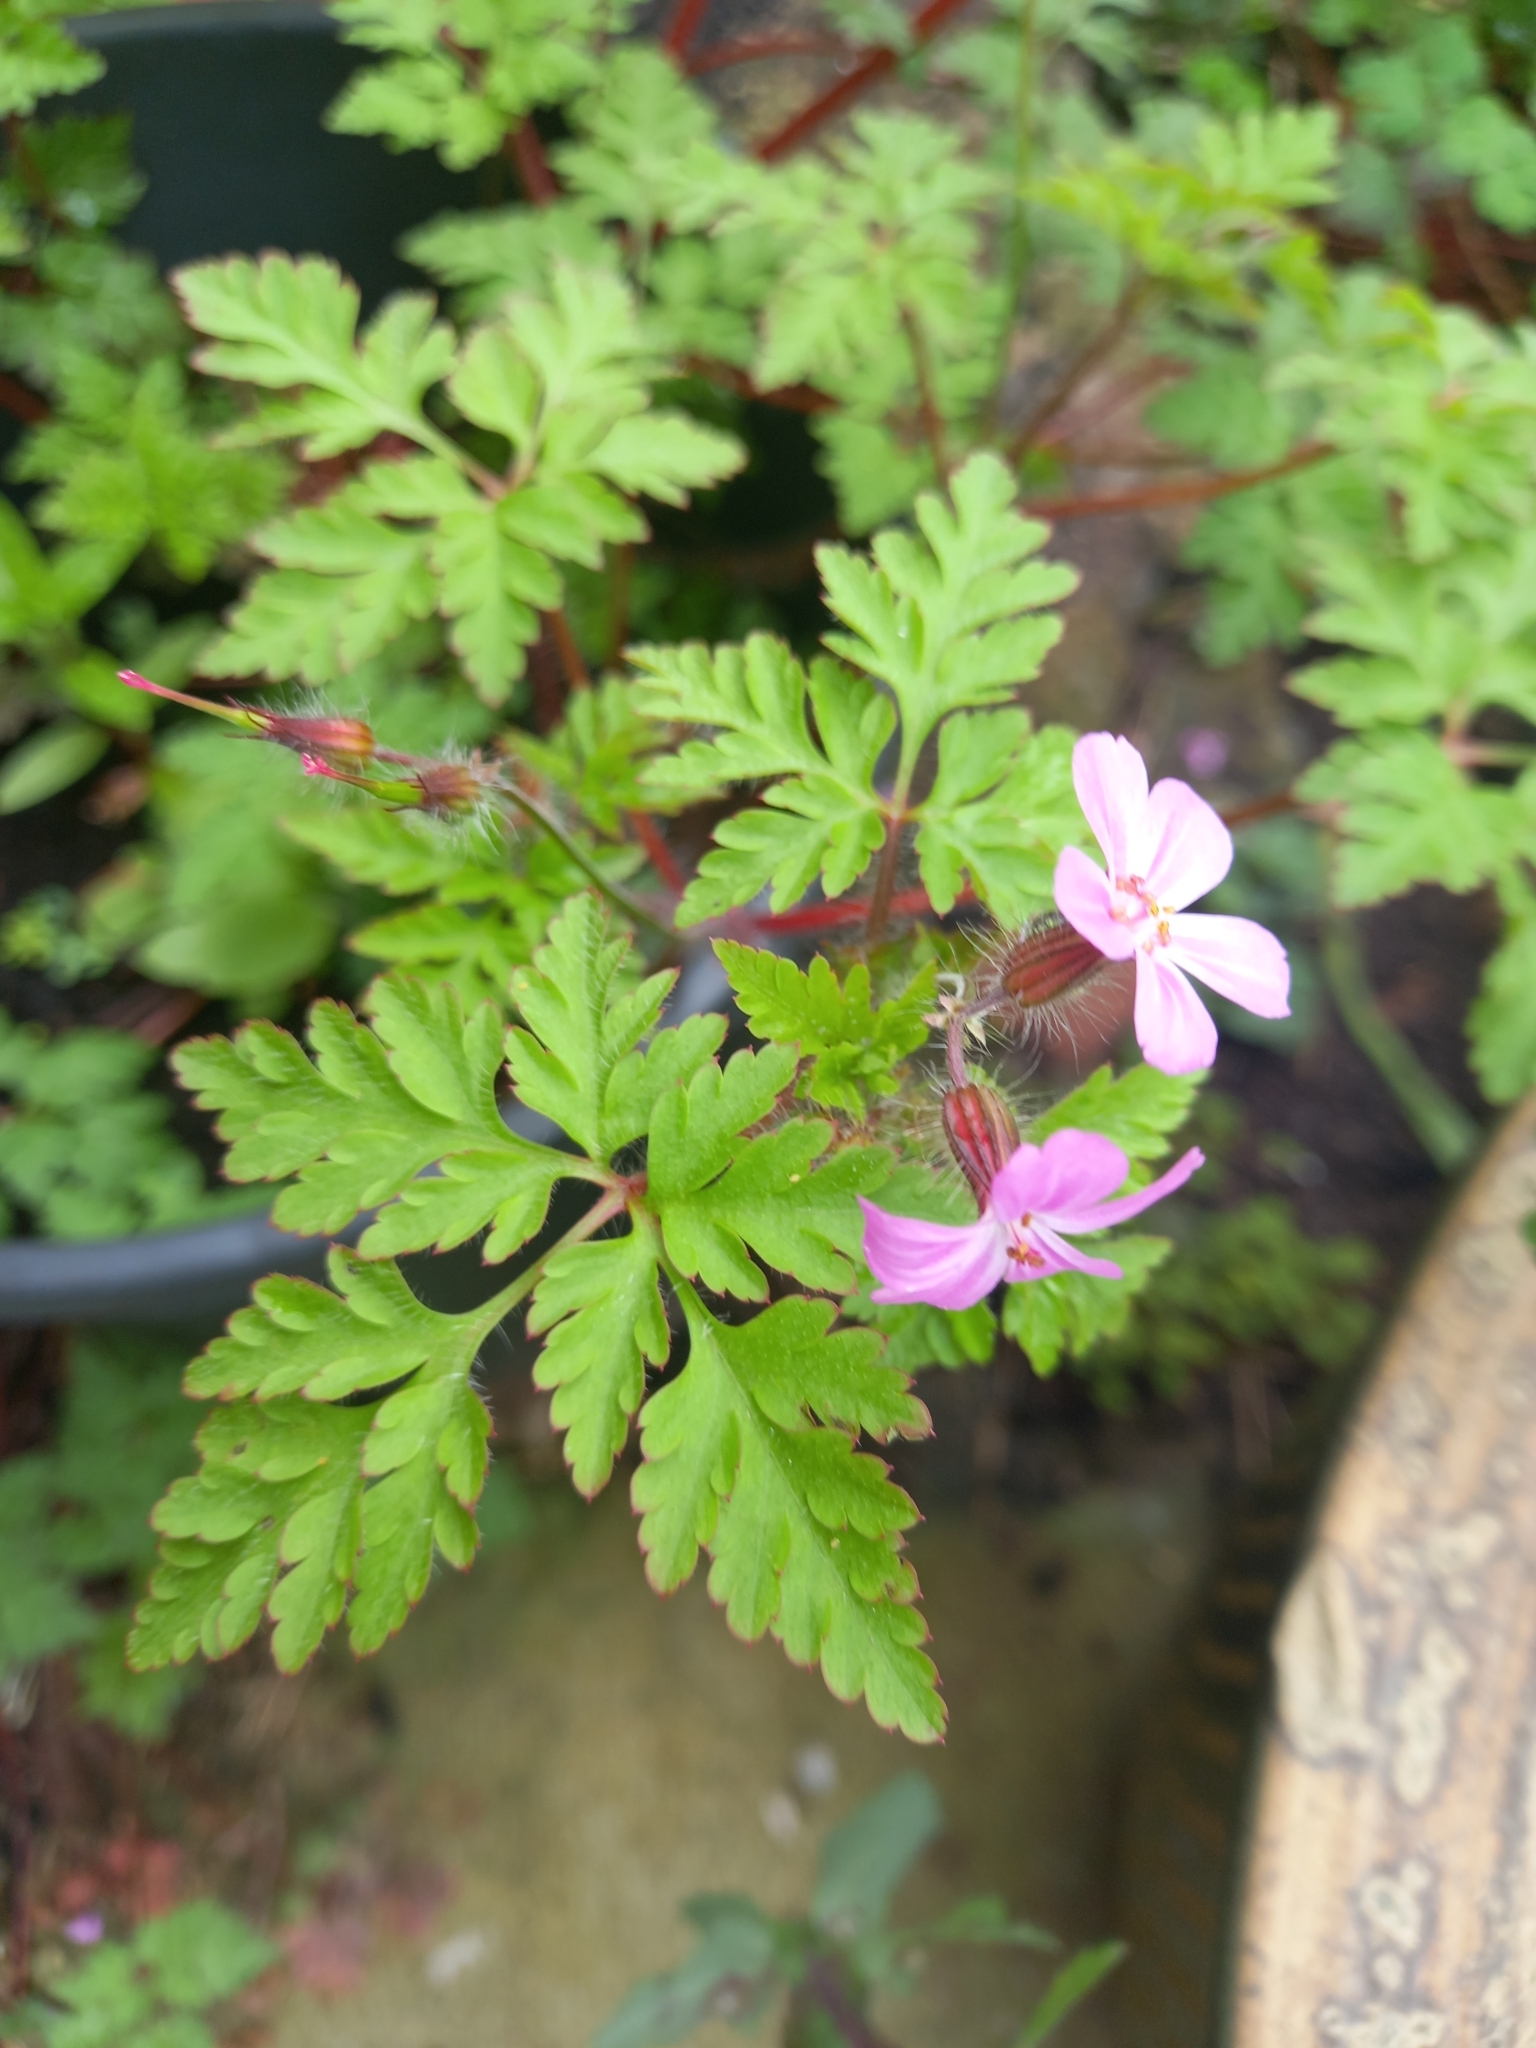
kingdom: Plantae
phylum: Tracheophyta
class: Magnoliopsida
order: Geraniales
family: Geraniaceae
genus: Geranium
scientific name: Geranium robertianum
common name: Herb-robert
